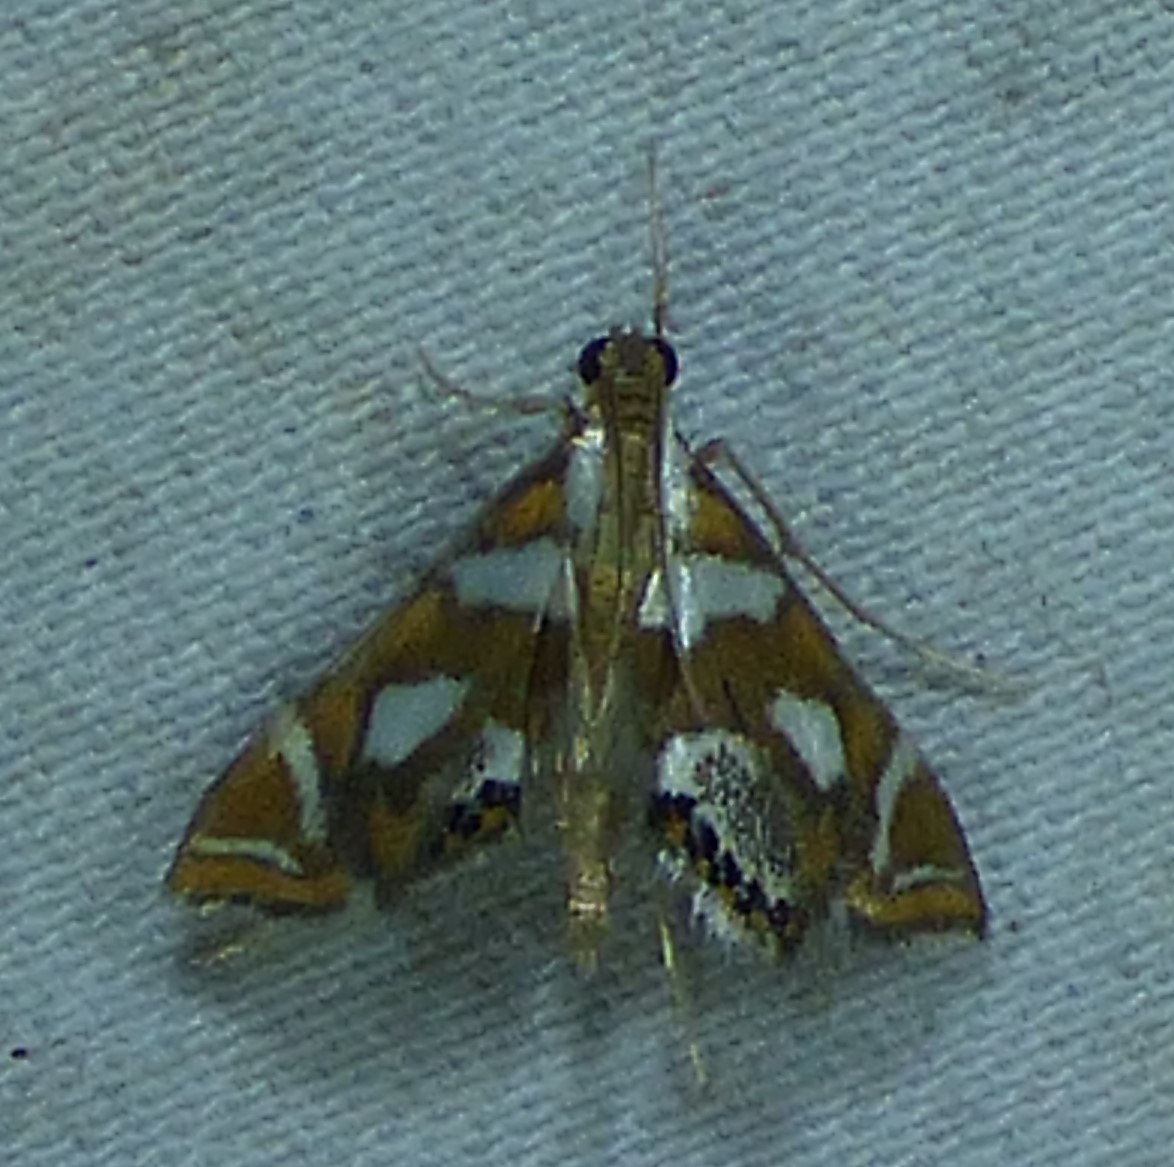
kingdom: Animalia
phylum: Arthropoda
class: Insecta
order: Lepidoptera
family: Crambidae
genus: Chrysendeton
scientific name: Chrysendeton medicinalis
